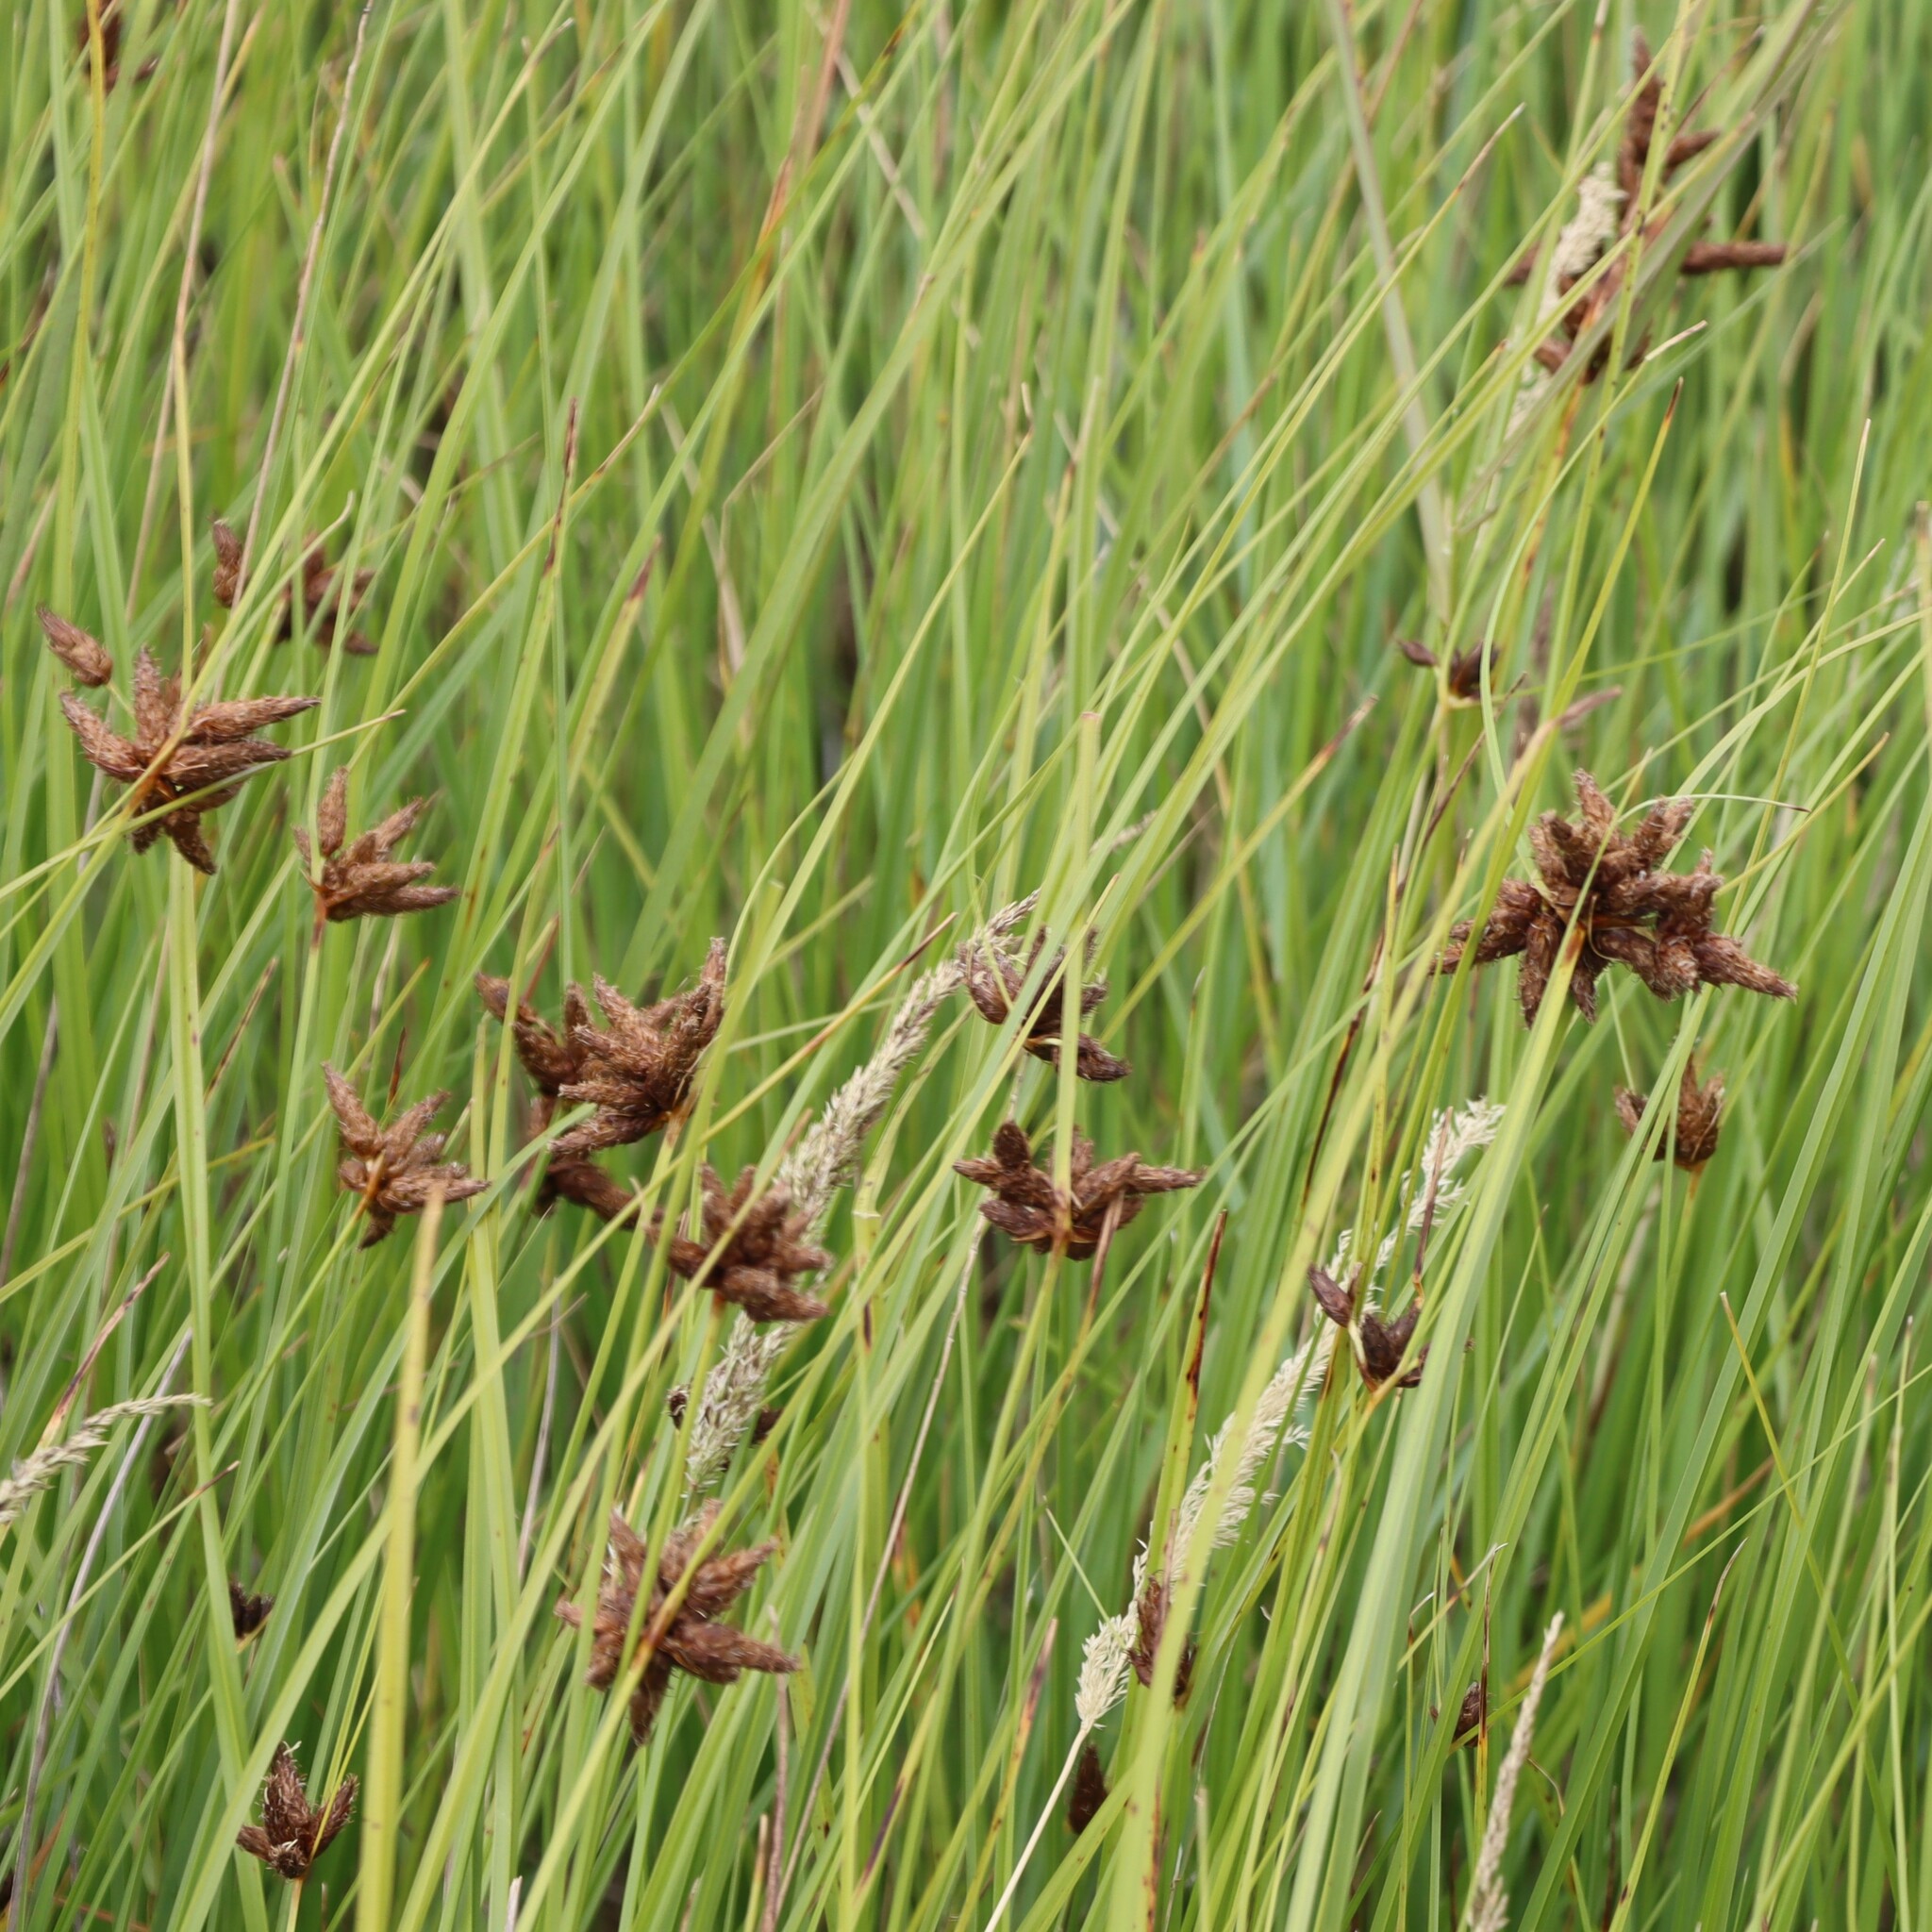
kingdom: Plantae
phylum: Tracheophyta
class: Liliopsida
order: Poales
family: Cyperaceae
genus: Bolboschoenus
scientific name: Bolboschoenus maritimus
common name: Sea club-rush
